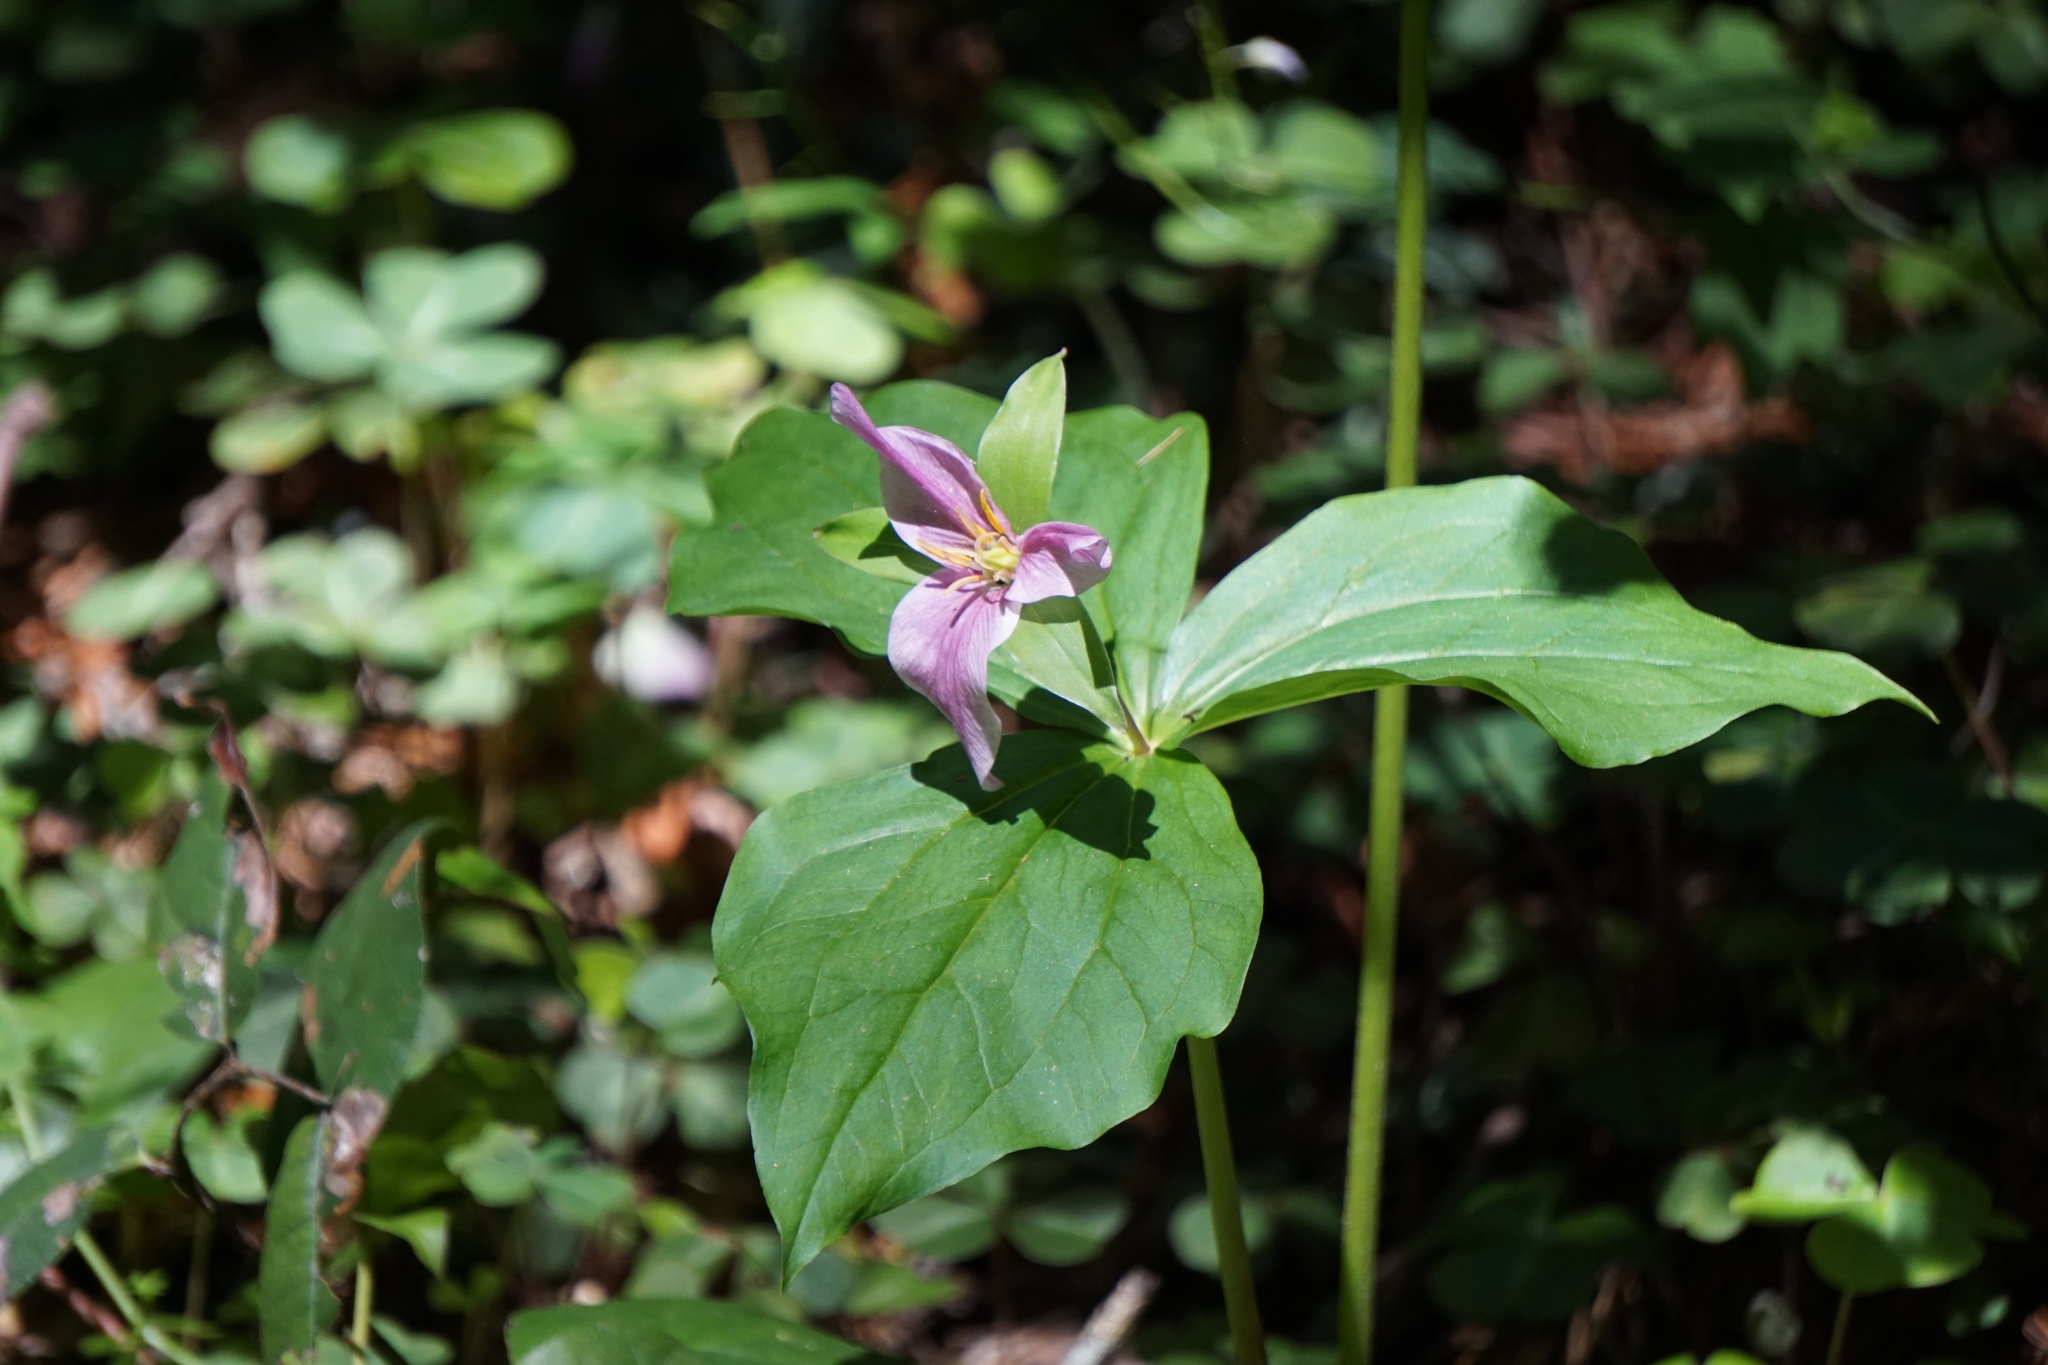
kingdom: Plantae
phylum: Tracheophyta
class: Liliopsida
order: Liliales
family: Melanthiaceae
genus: Trillium
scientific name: Trillium ovatum
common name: Pacific trillium
